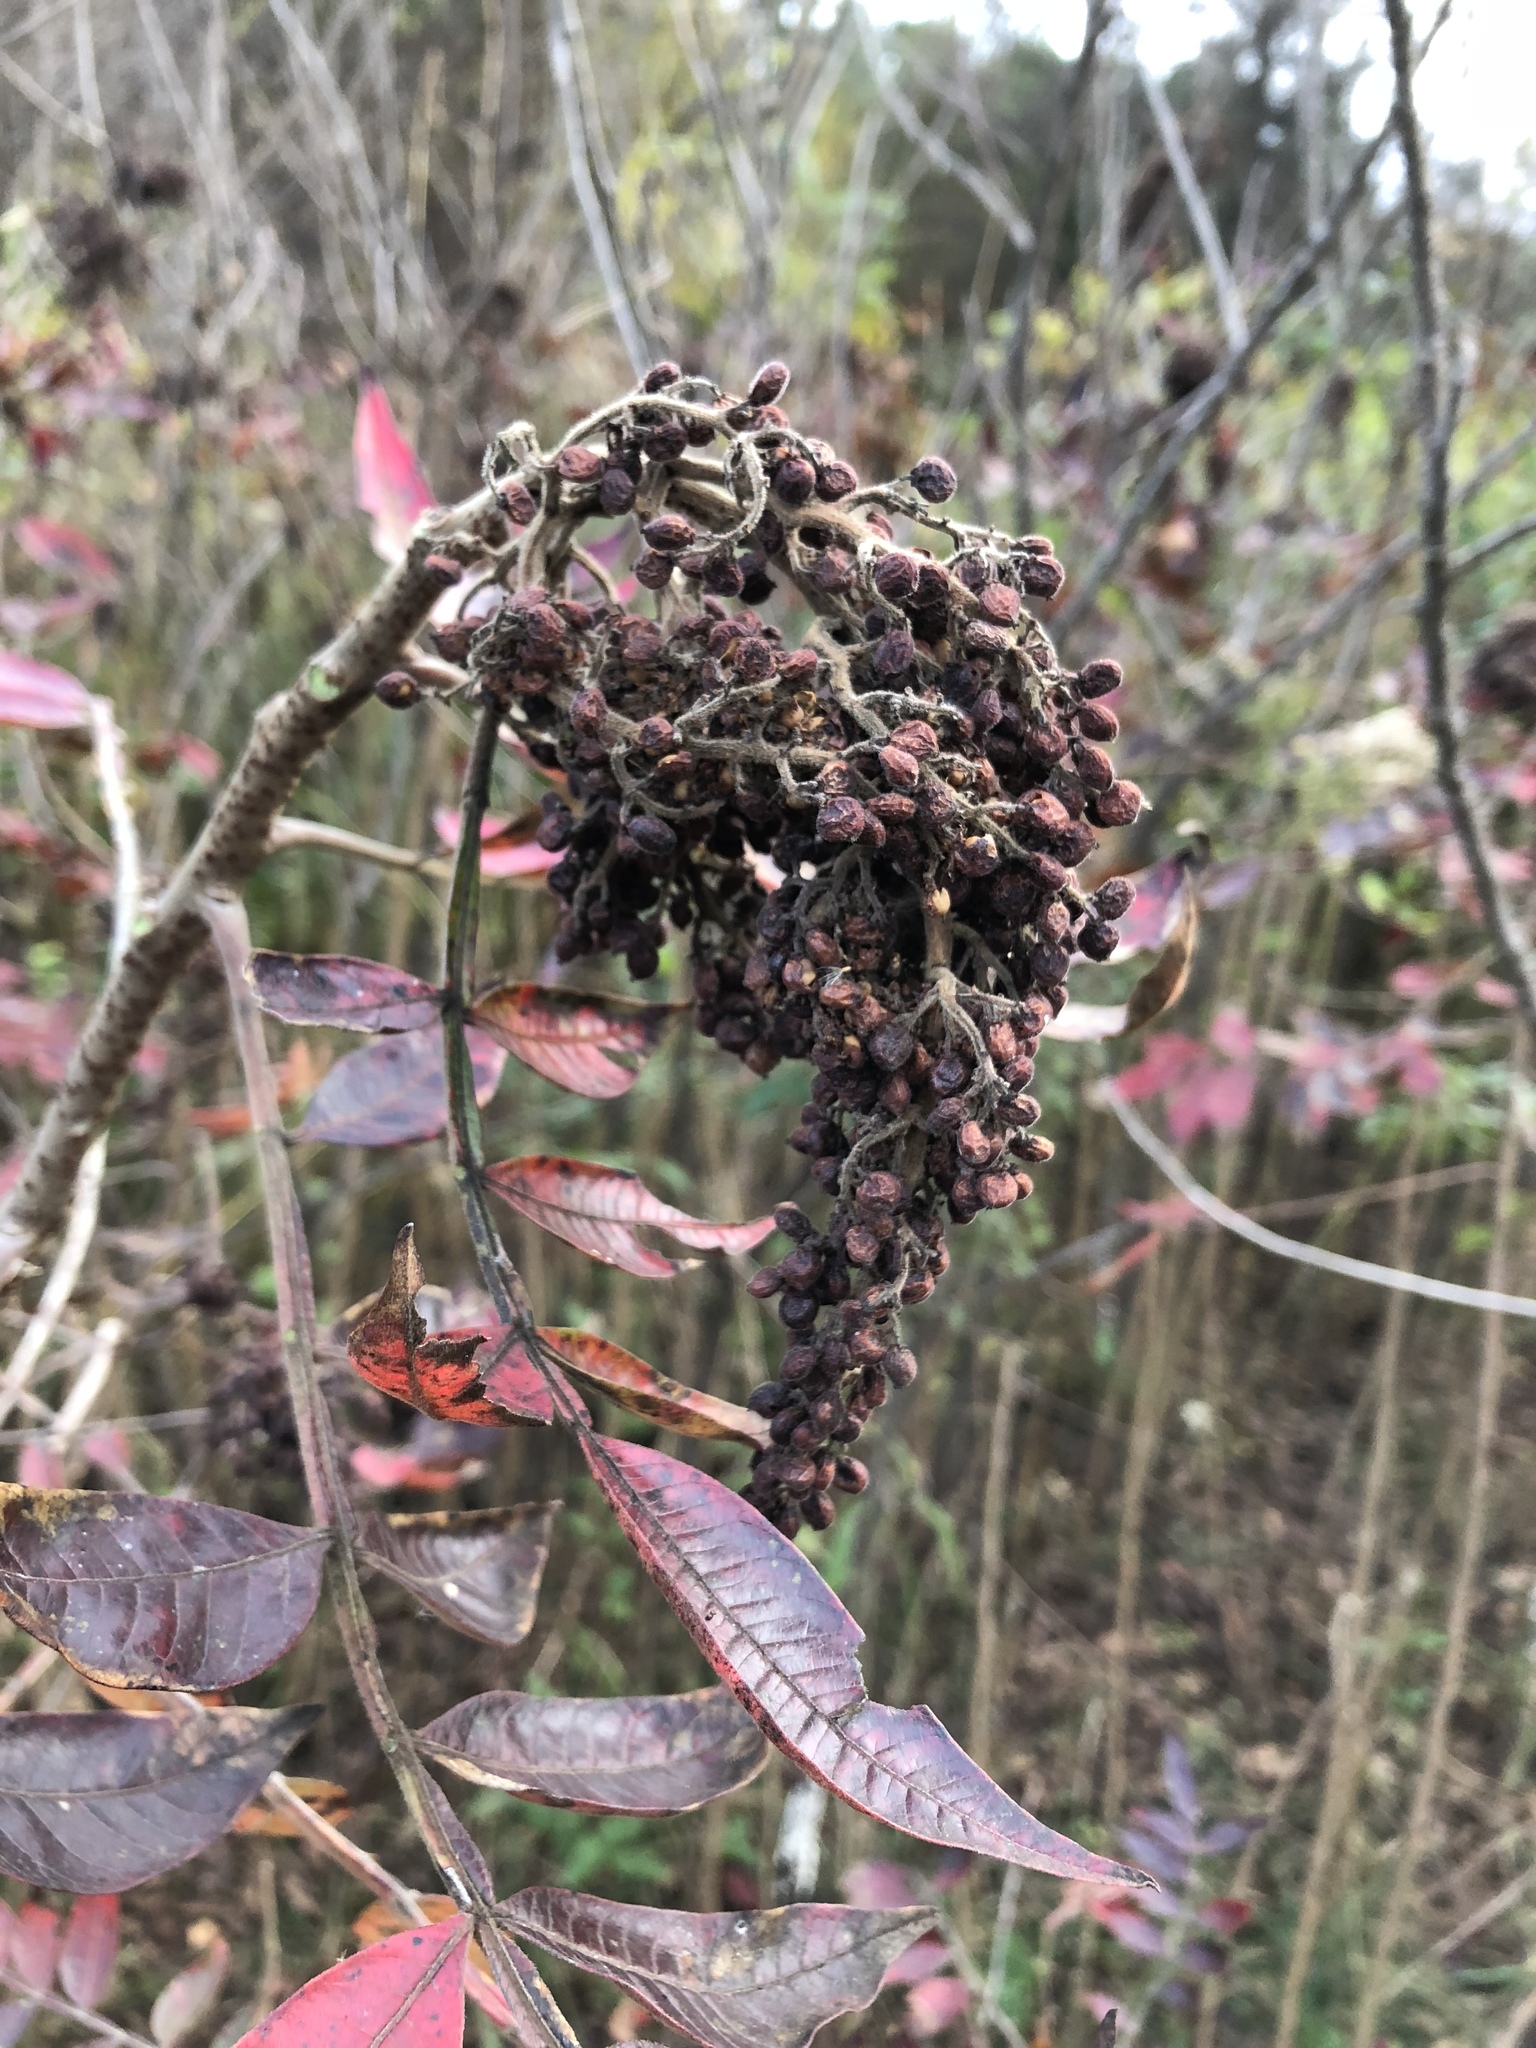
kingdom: Plantae
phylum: Tracheophyta
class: Magnoliopsida
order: Sapindales
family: Anacardiaceae
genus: Rhus
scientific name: Rhus copallina
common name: Shining sumac
